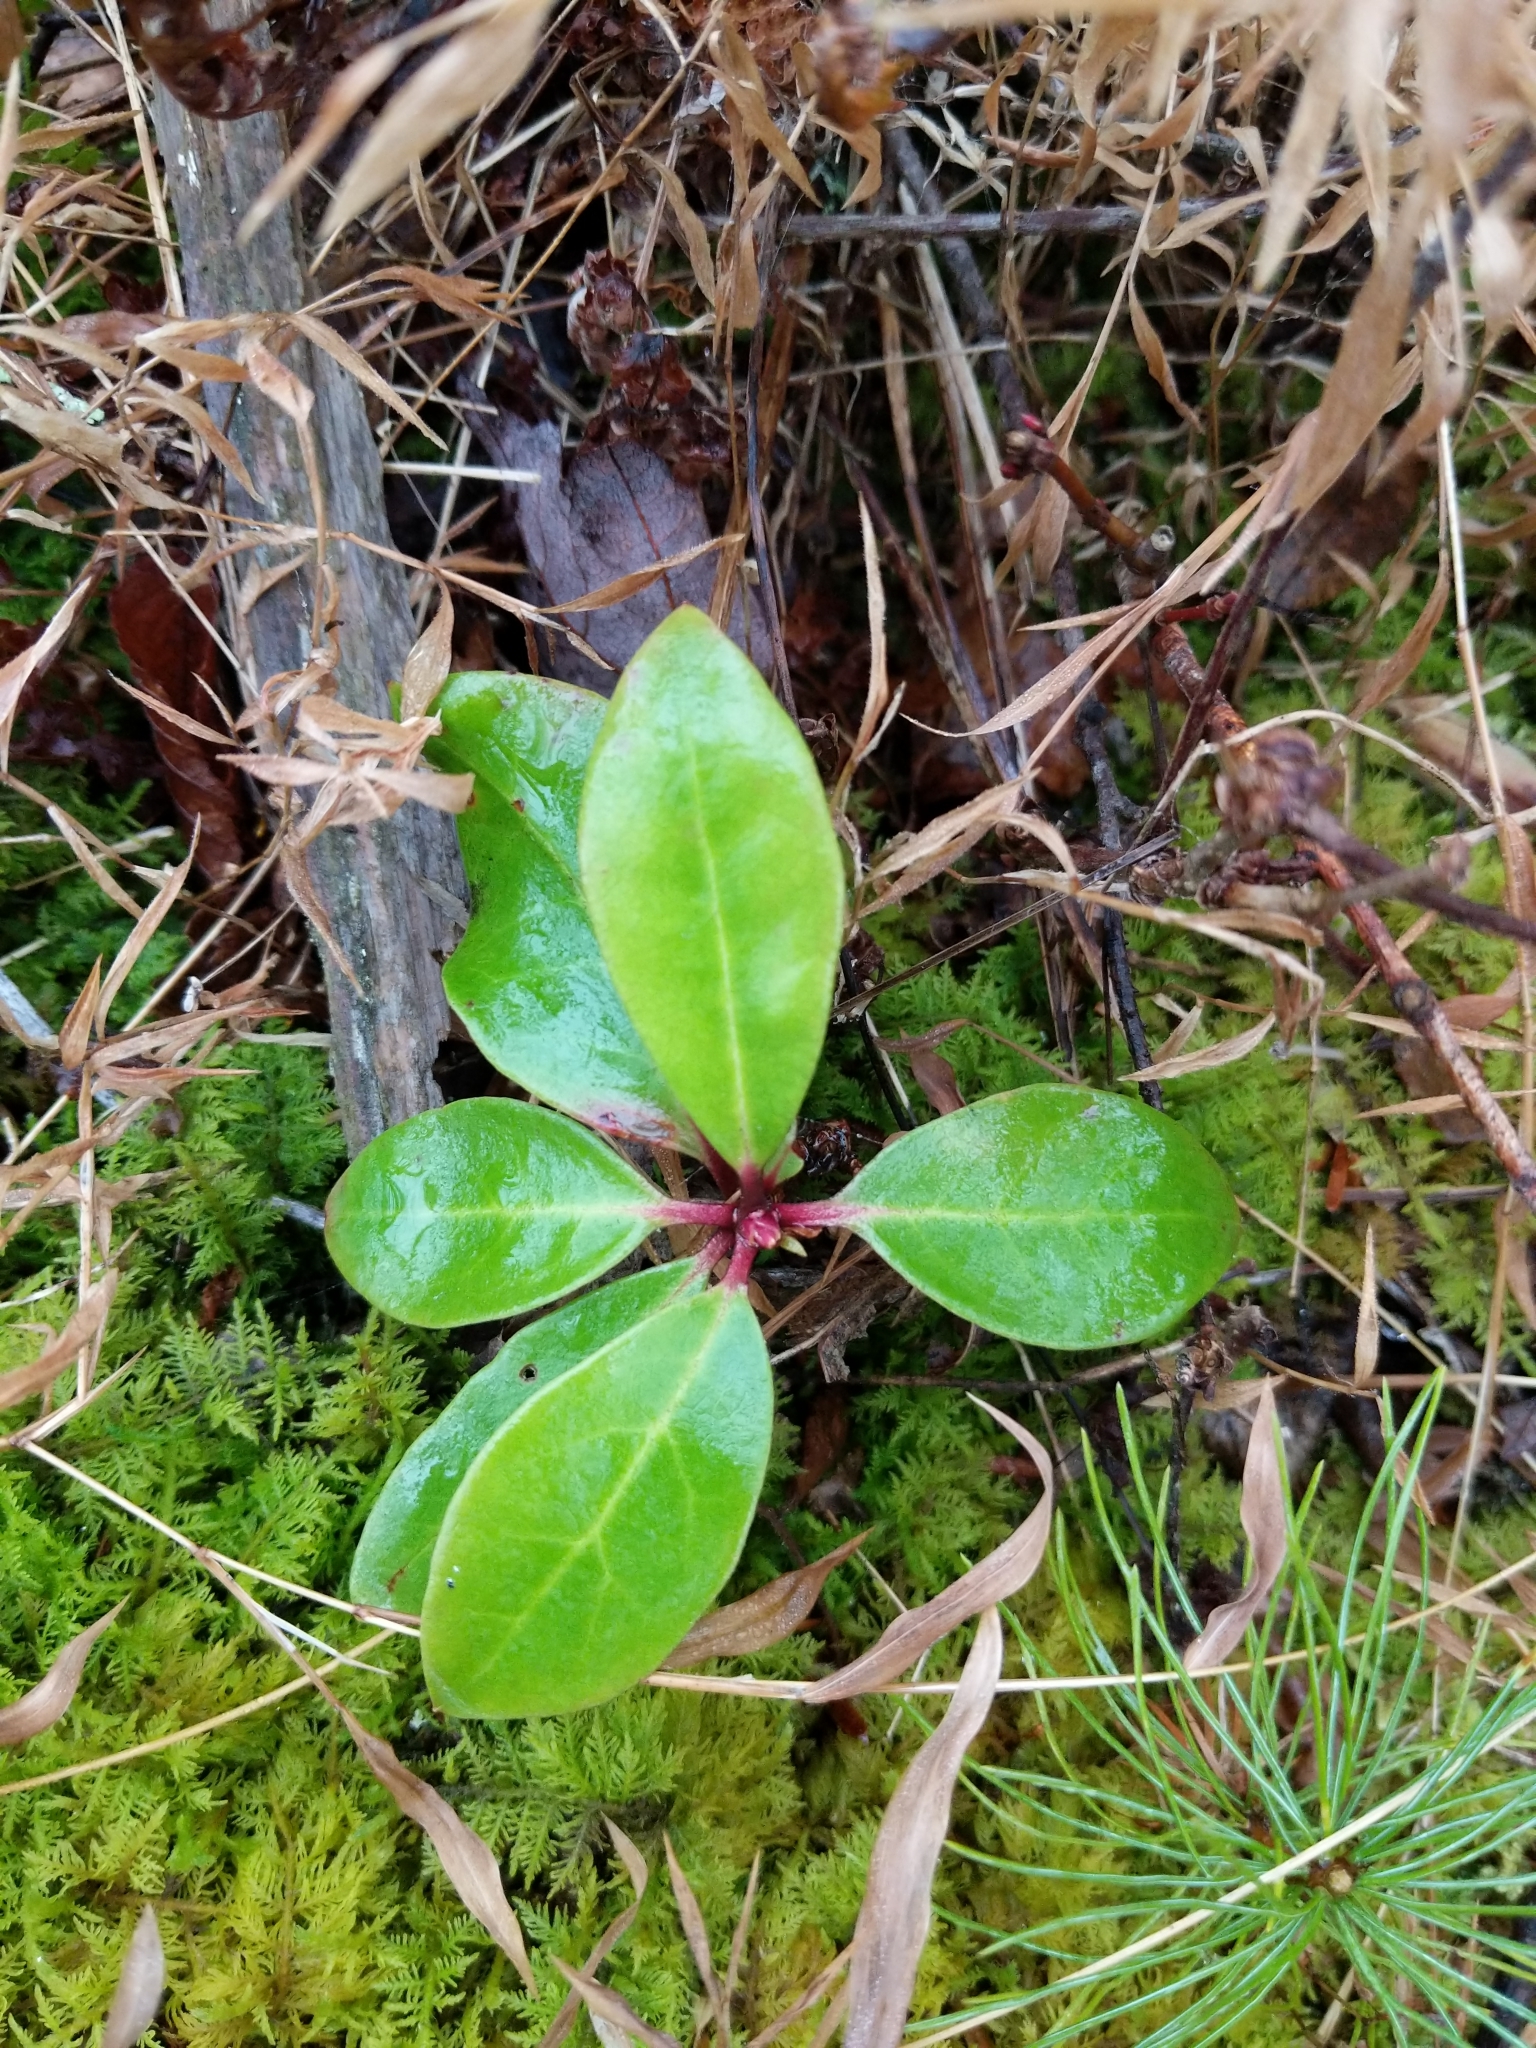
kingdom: Plantae
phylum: Tracheophyta
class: Magnoliopsida
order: Ericales
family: Ericaceae
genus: Gaultheria
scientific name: Gaultheria procumbens
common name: Checkerberry
